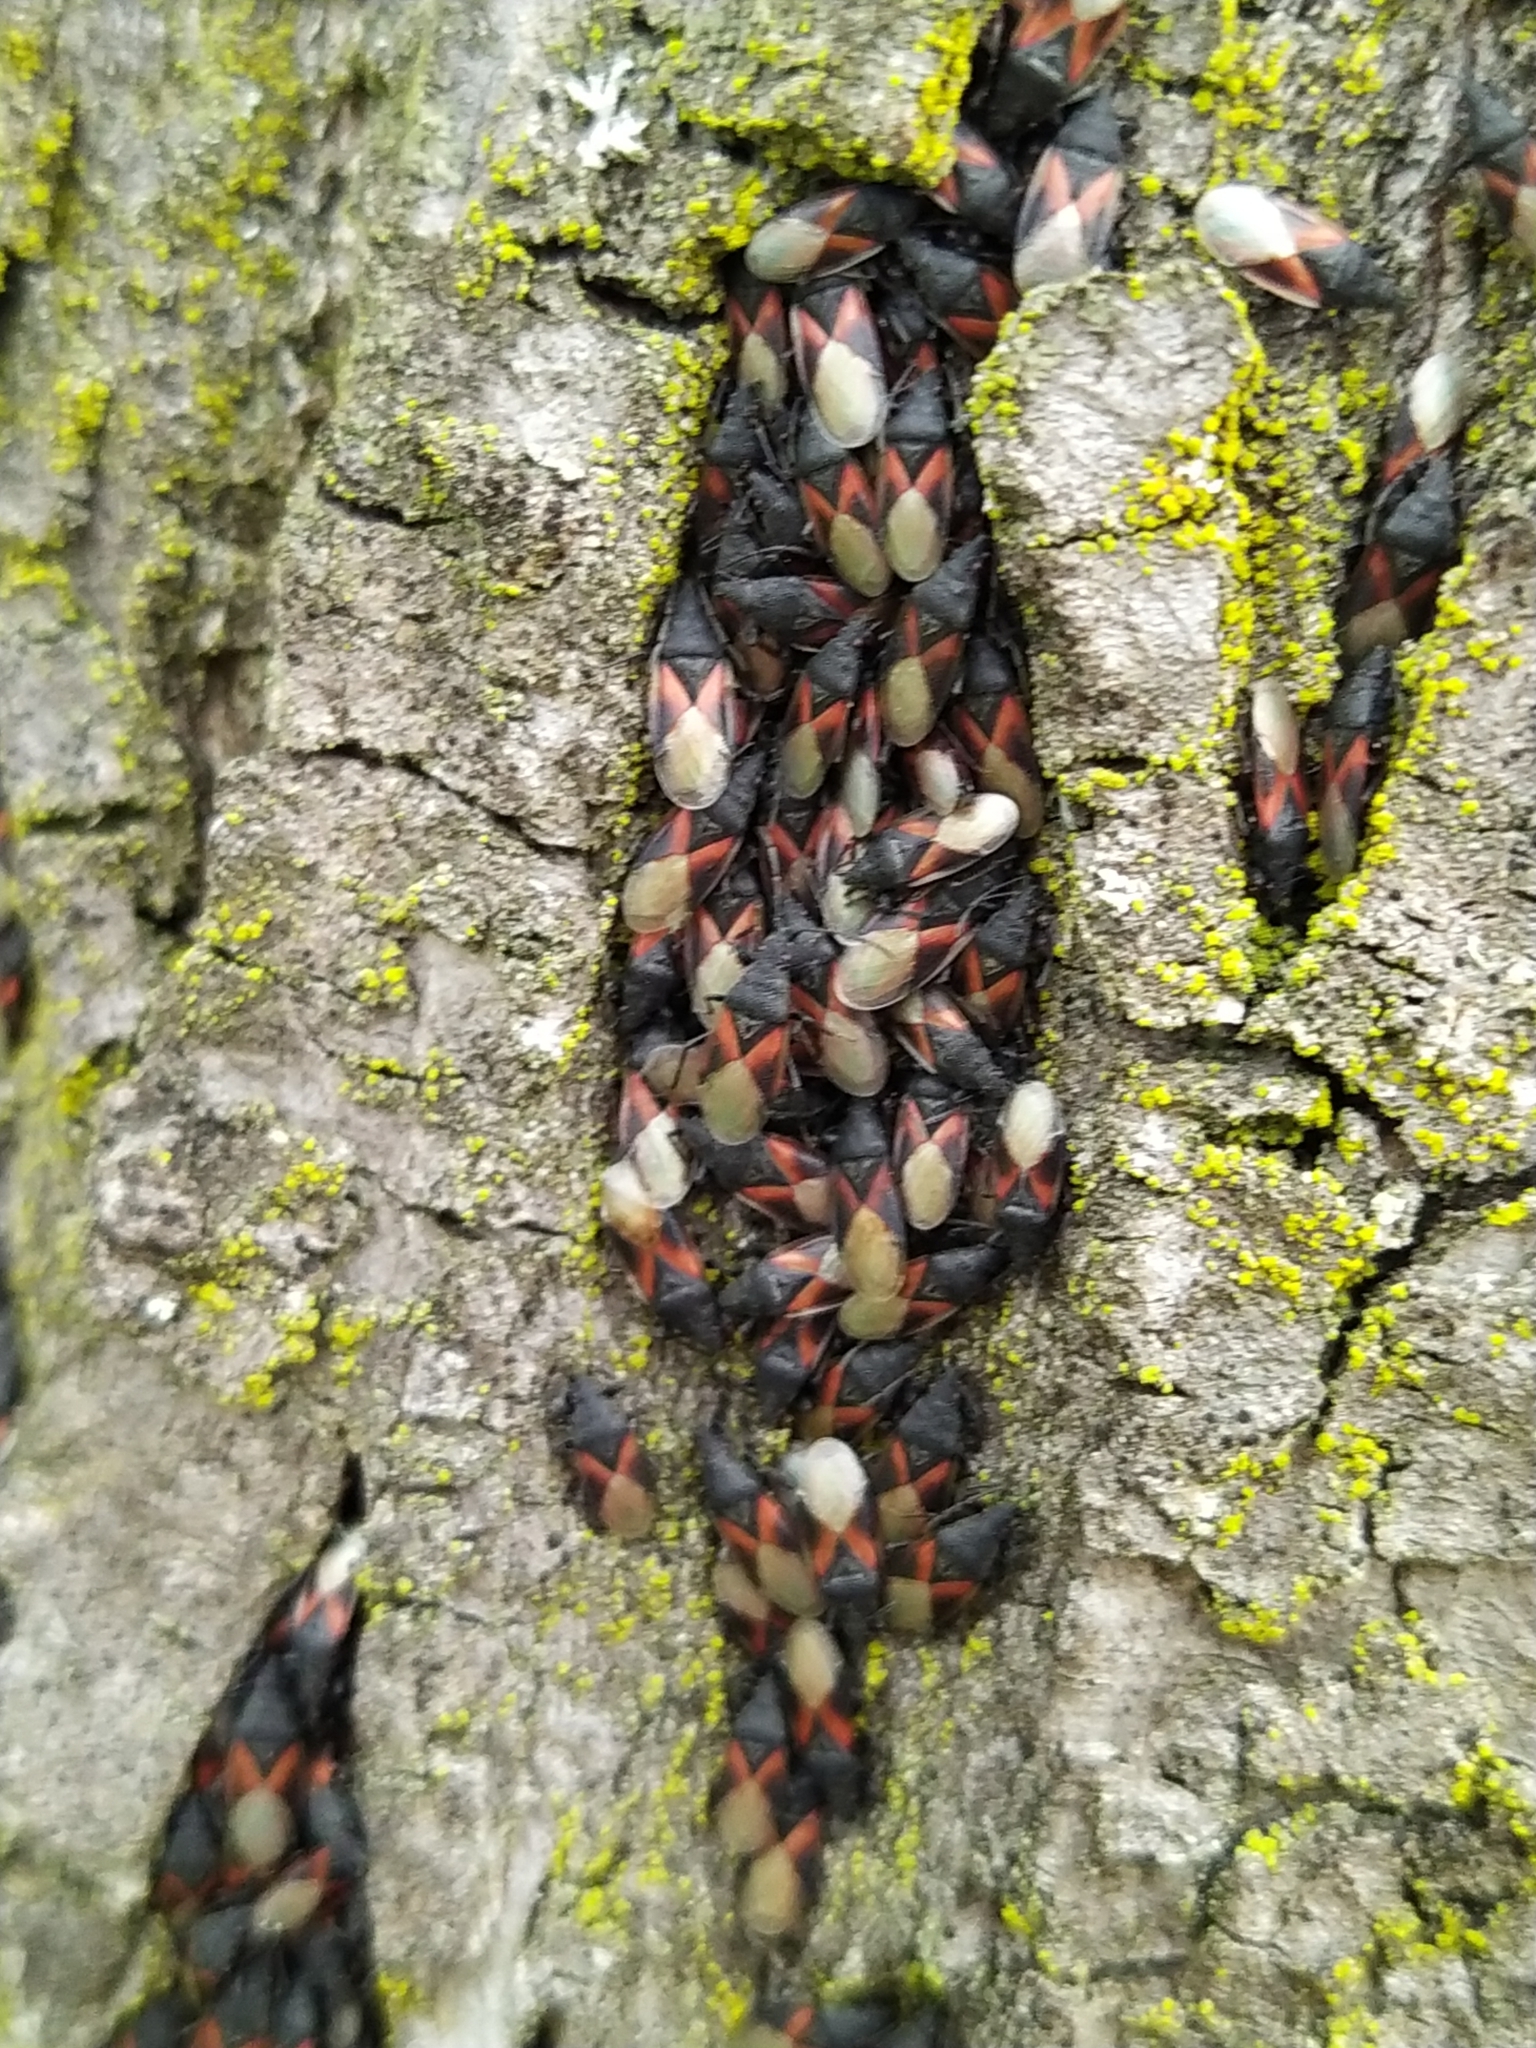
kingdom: Animalia
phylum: Arthropoda
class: Insecta
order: Hemiptera
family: Oxycarenidae
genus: Oxycarenus
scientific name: Oxycarenus lavaterae
